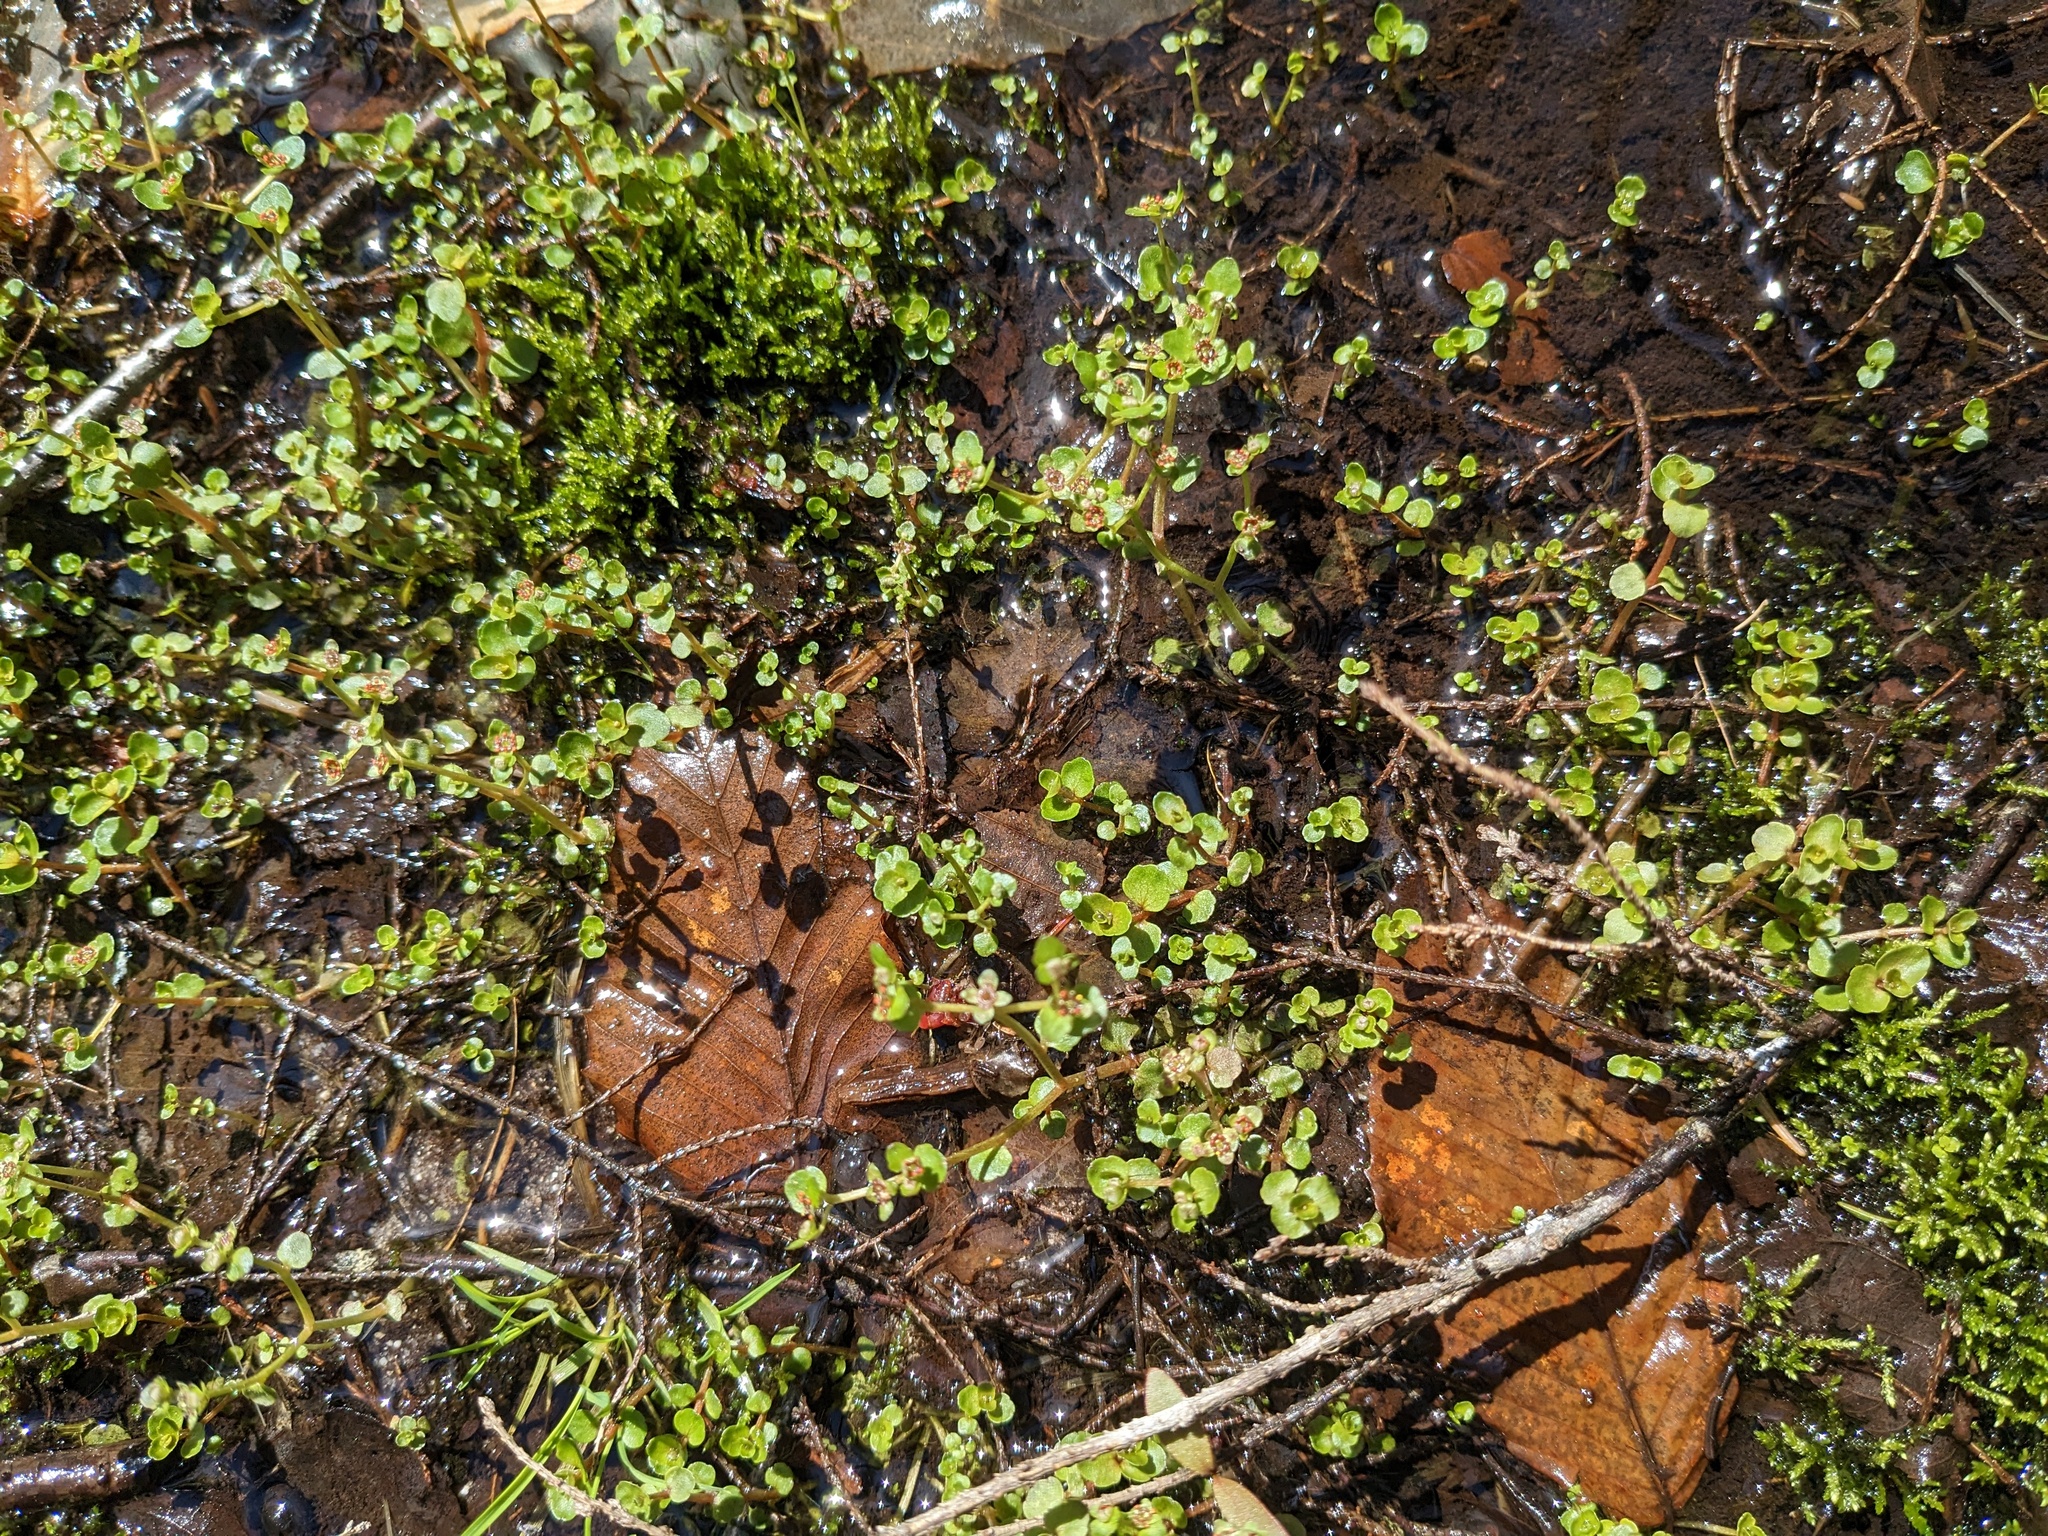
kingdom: Plantae
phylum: Tracheophyta
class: Magnoliopsida
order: Saxifragales
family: Saxifragaceae
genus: Chrysosplenium
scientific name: Chrysosplenium americanum
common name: American golden-saxifrage
